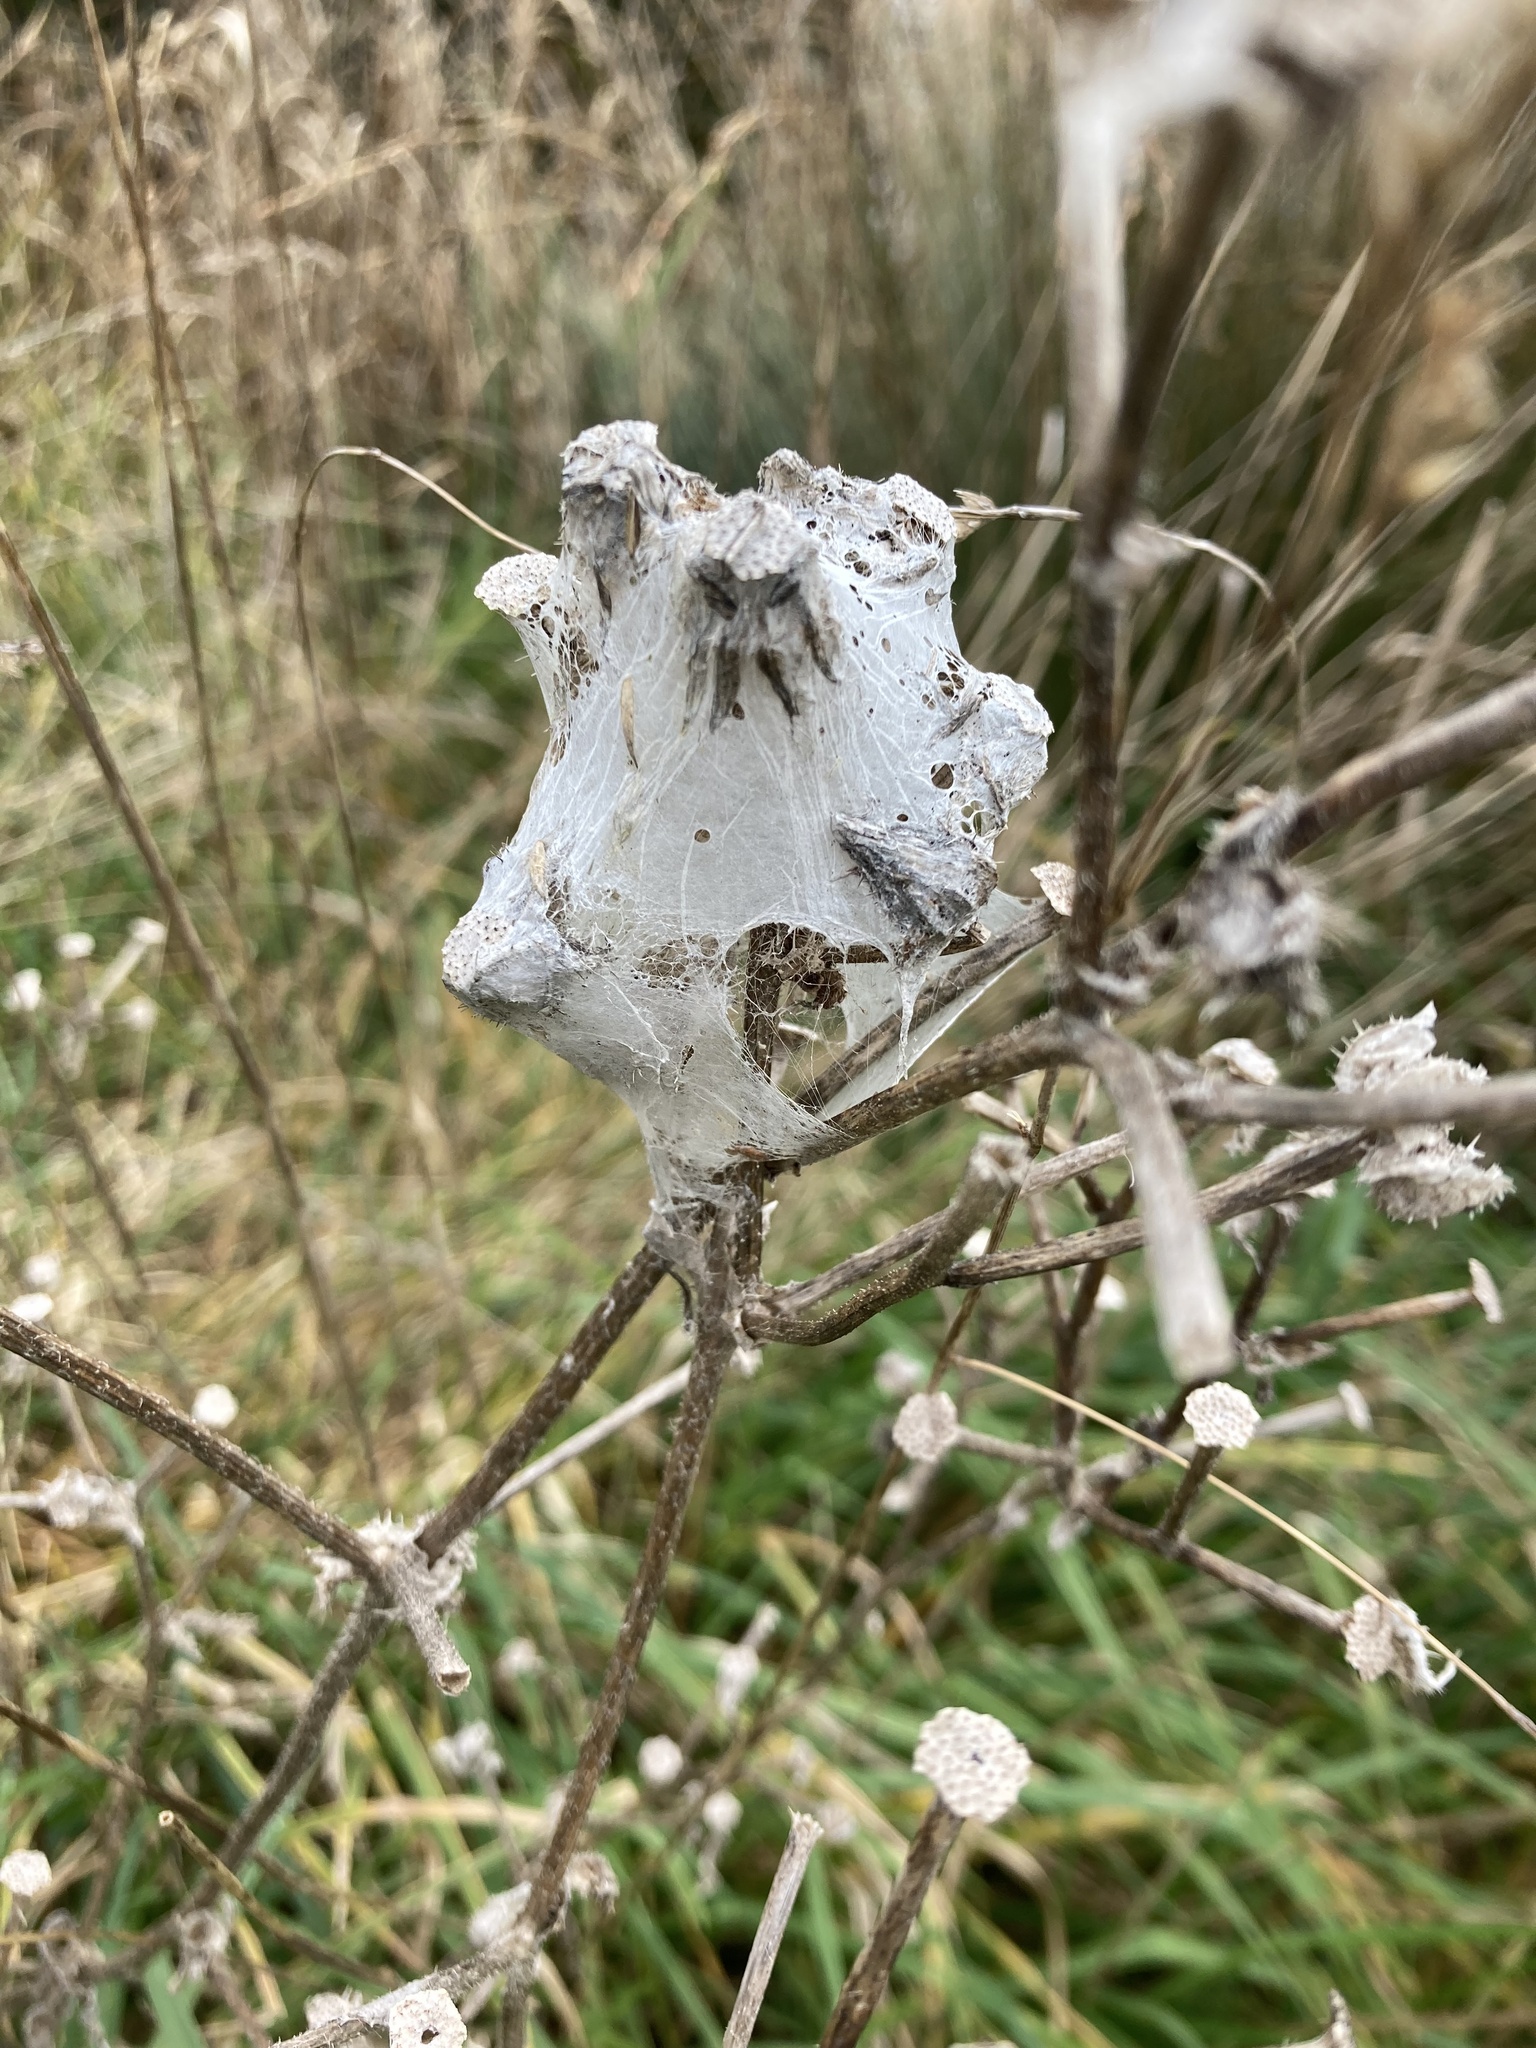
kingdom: Animalia
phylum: Arthropoda
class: Arachnida
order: Araneae
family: Pisauridae
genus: Dolomedes
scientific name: Dolomedes minor
